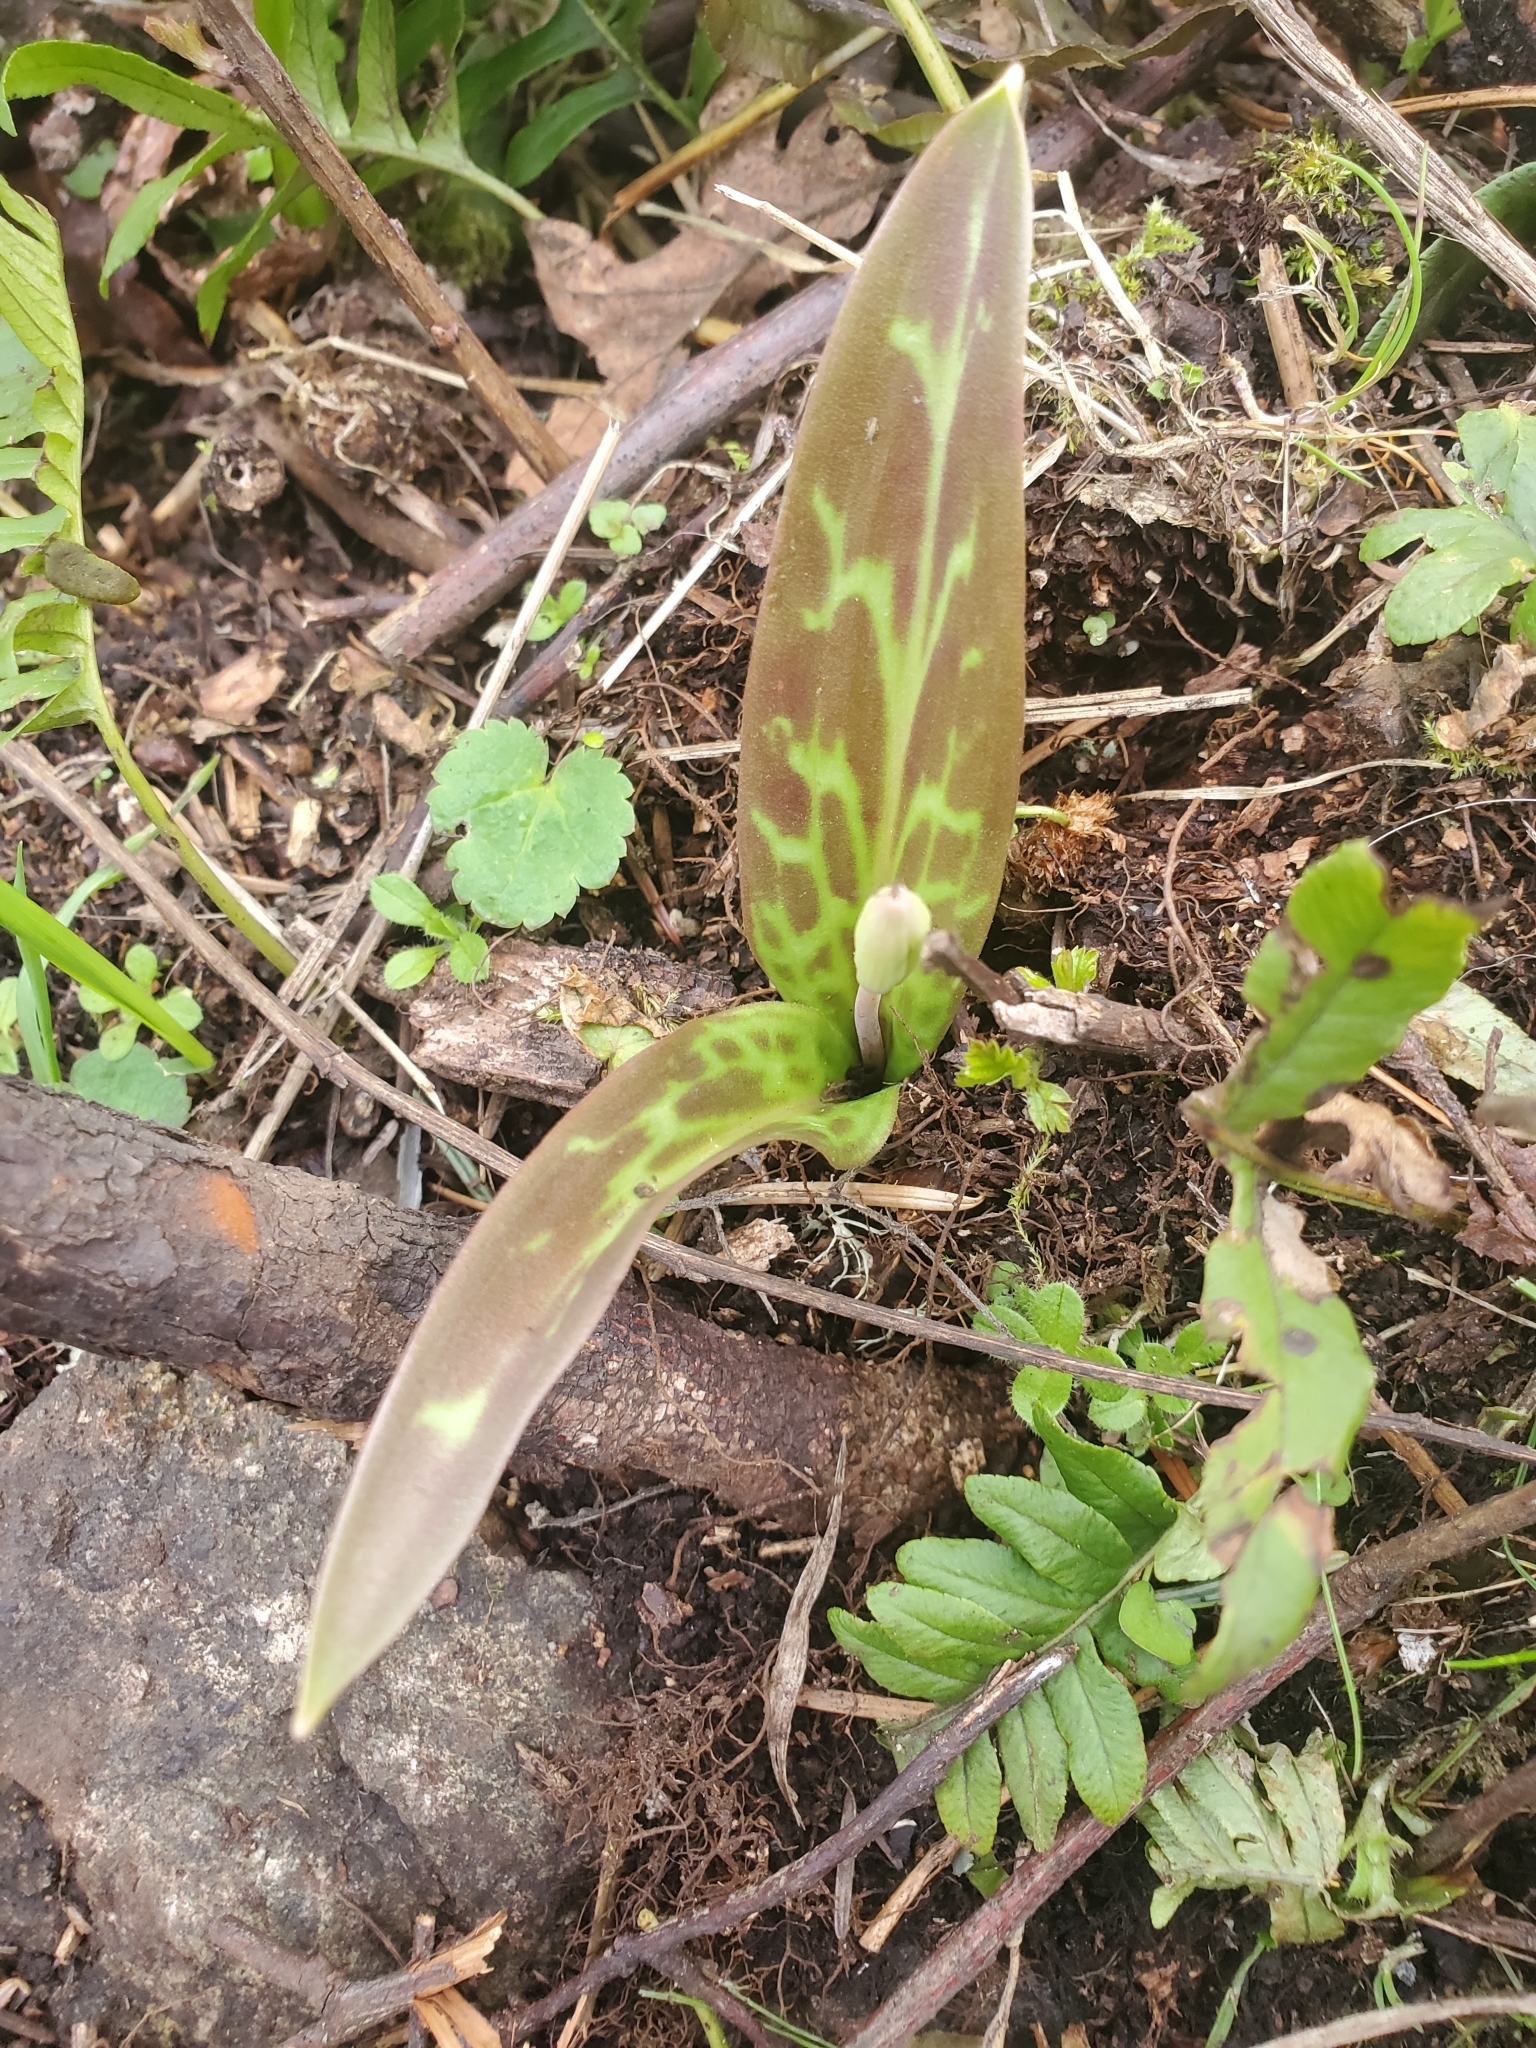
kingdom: Plantae
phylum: Tracheophyta
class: Liliopsida
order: Liliales
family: Liliaceae
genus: Erythronium
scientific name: Erythronium oregonum
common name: Giant adder's-tongue
